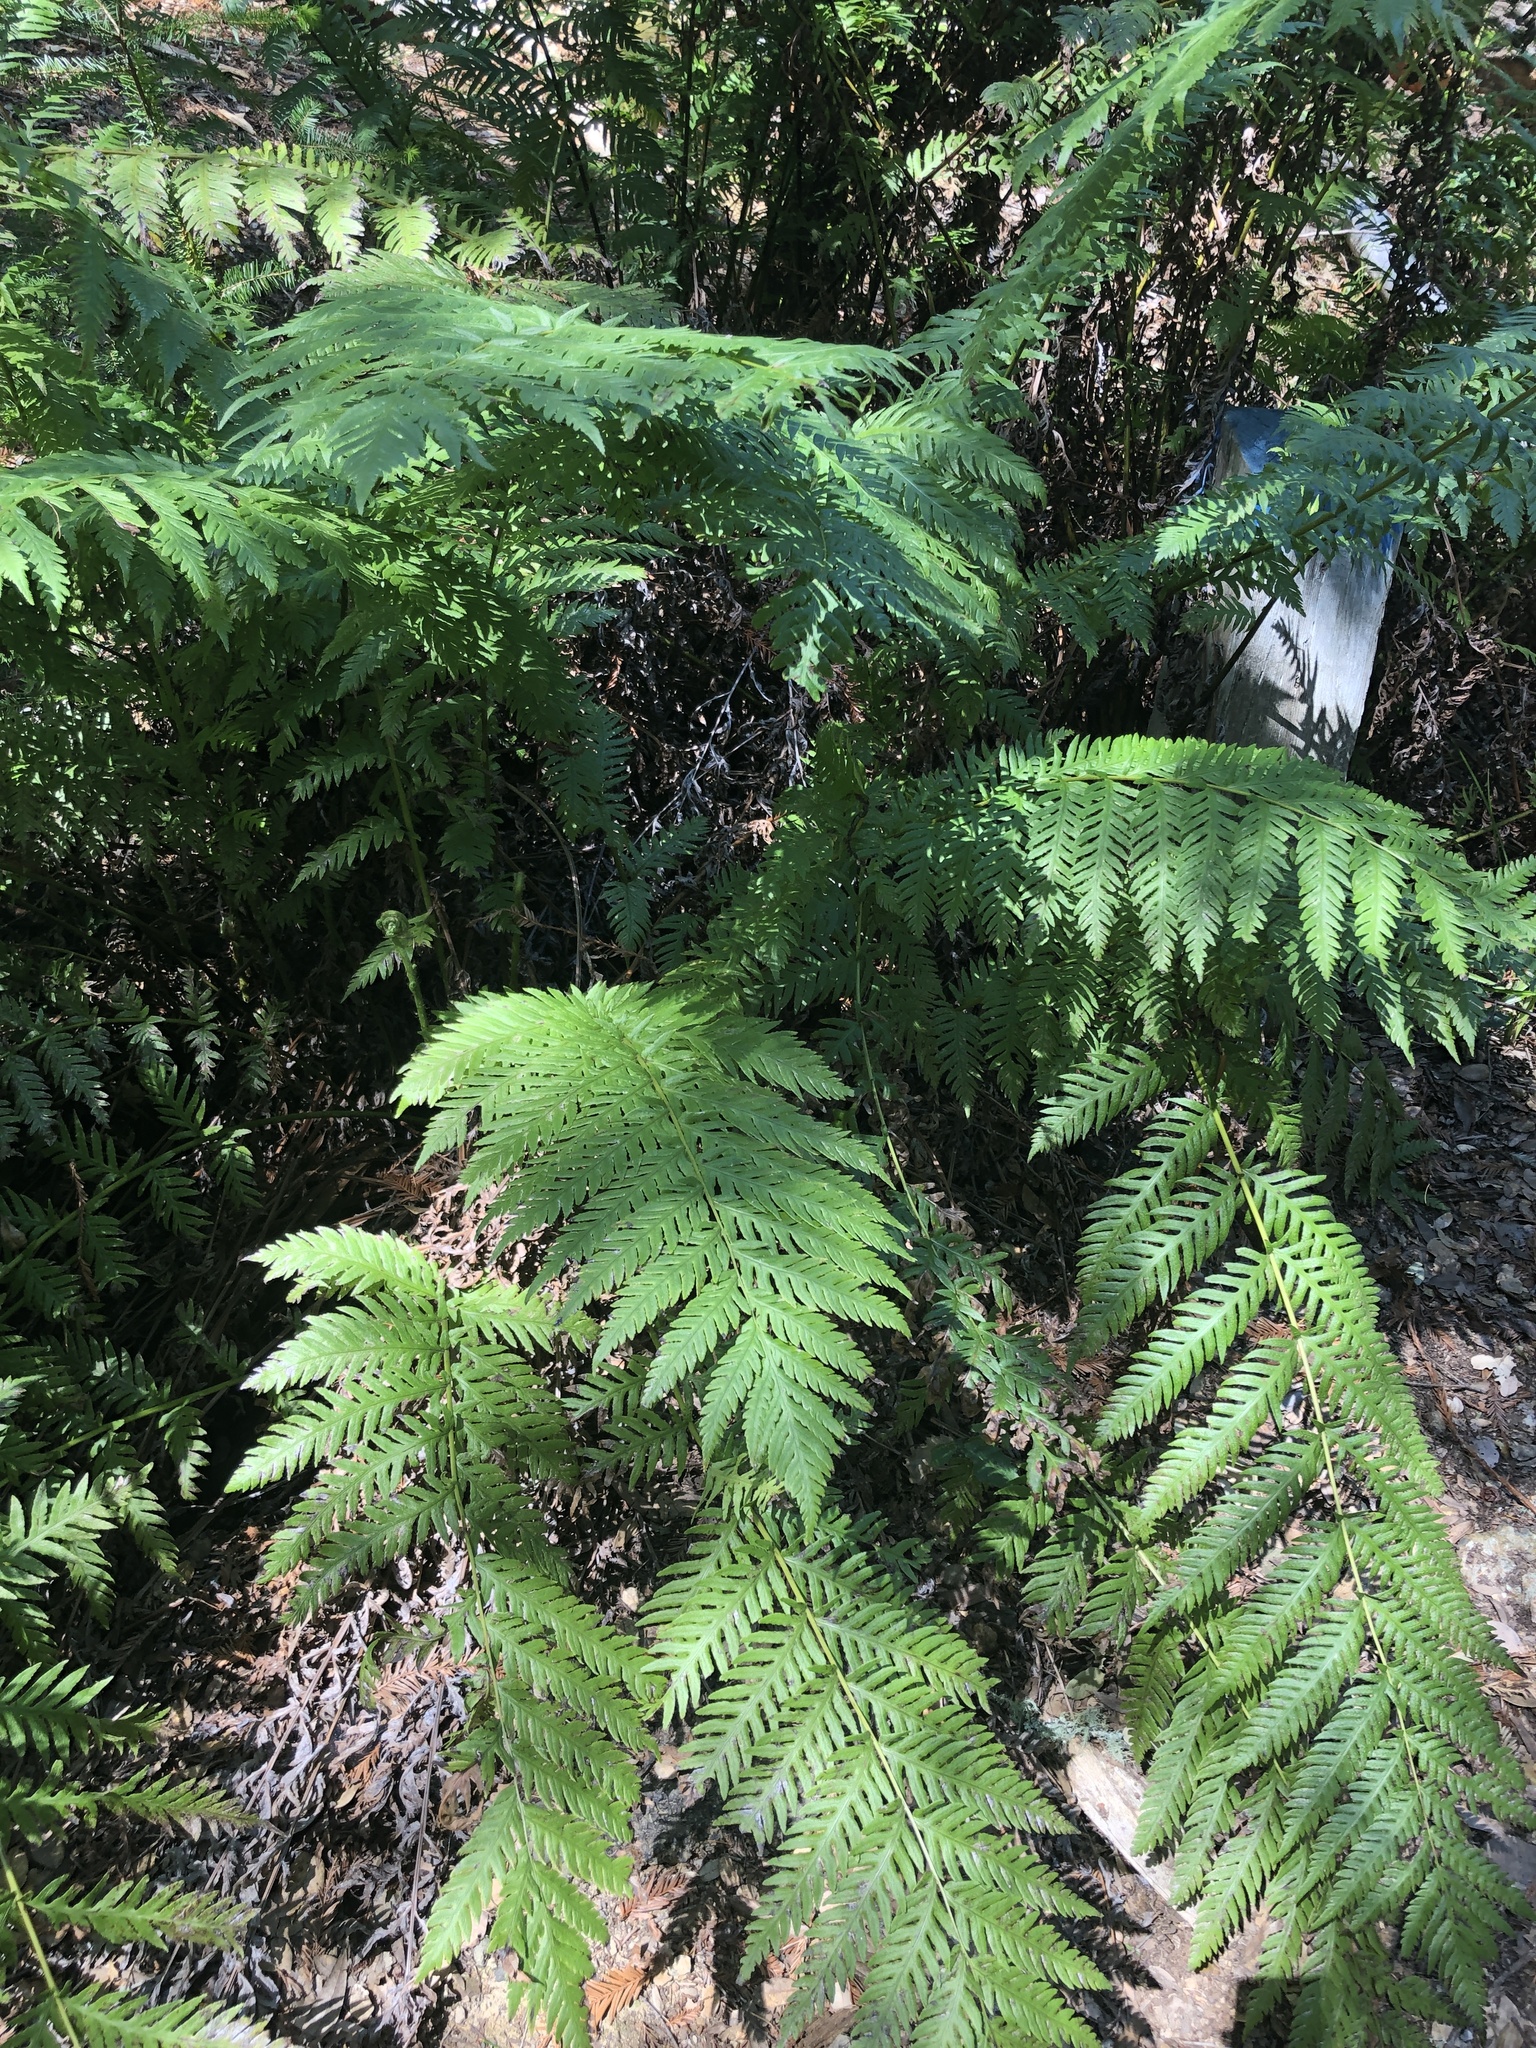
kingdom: Plantae
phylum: Tracheophyta
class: Polypodiopsida
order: Polypodiales
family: Blechnaceae
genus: Woodwardia
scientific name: Woodwardia fimbriata
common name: Giant chain fern
